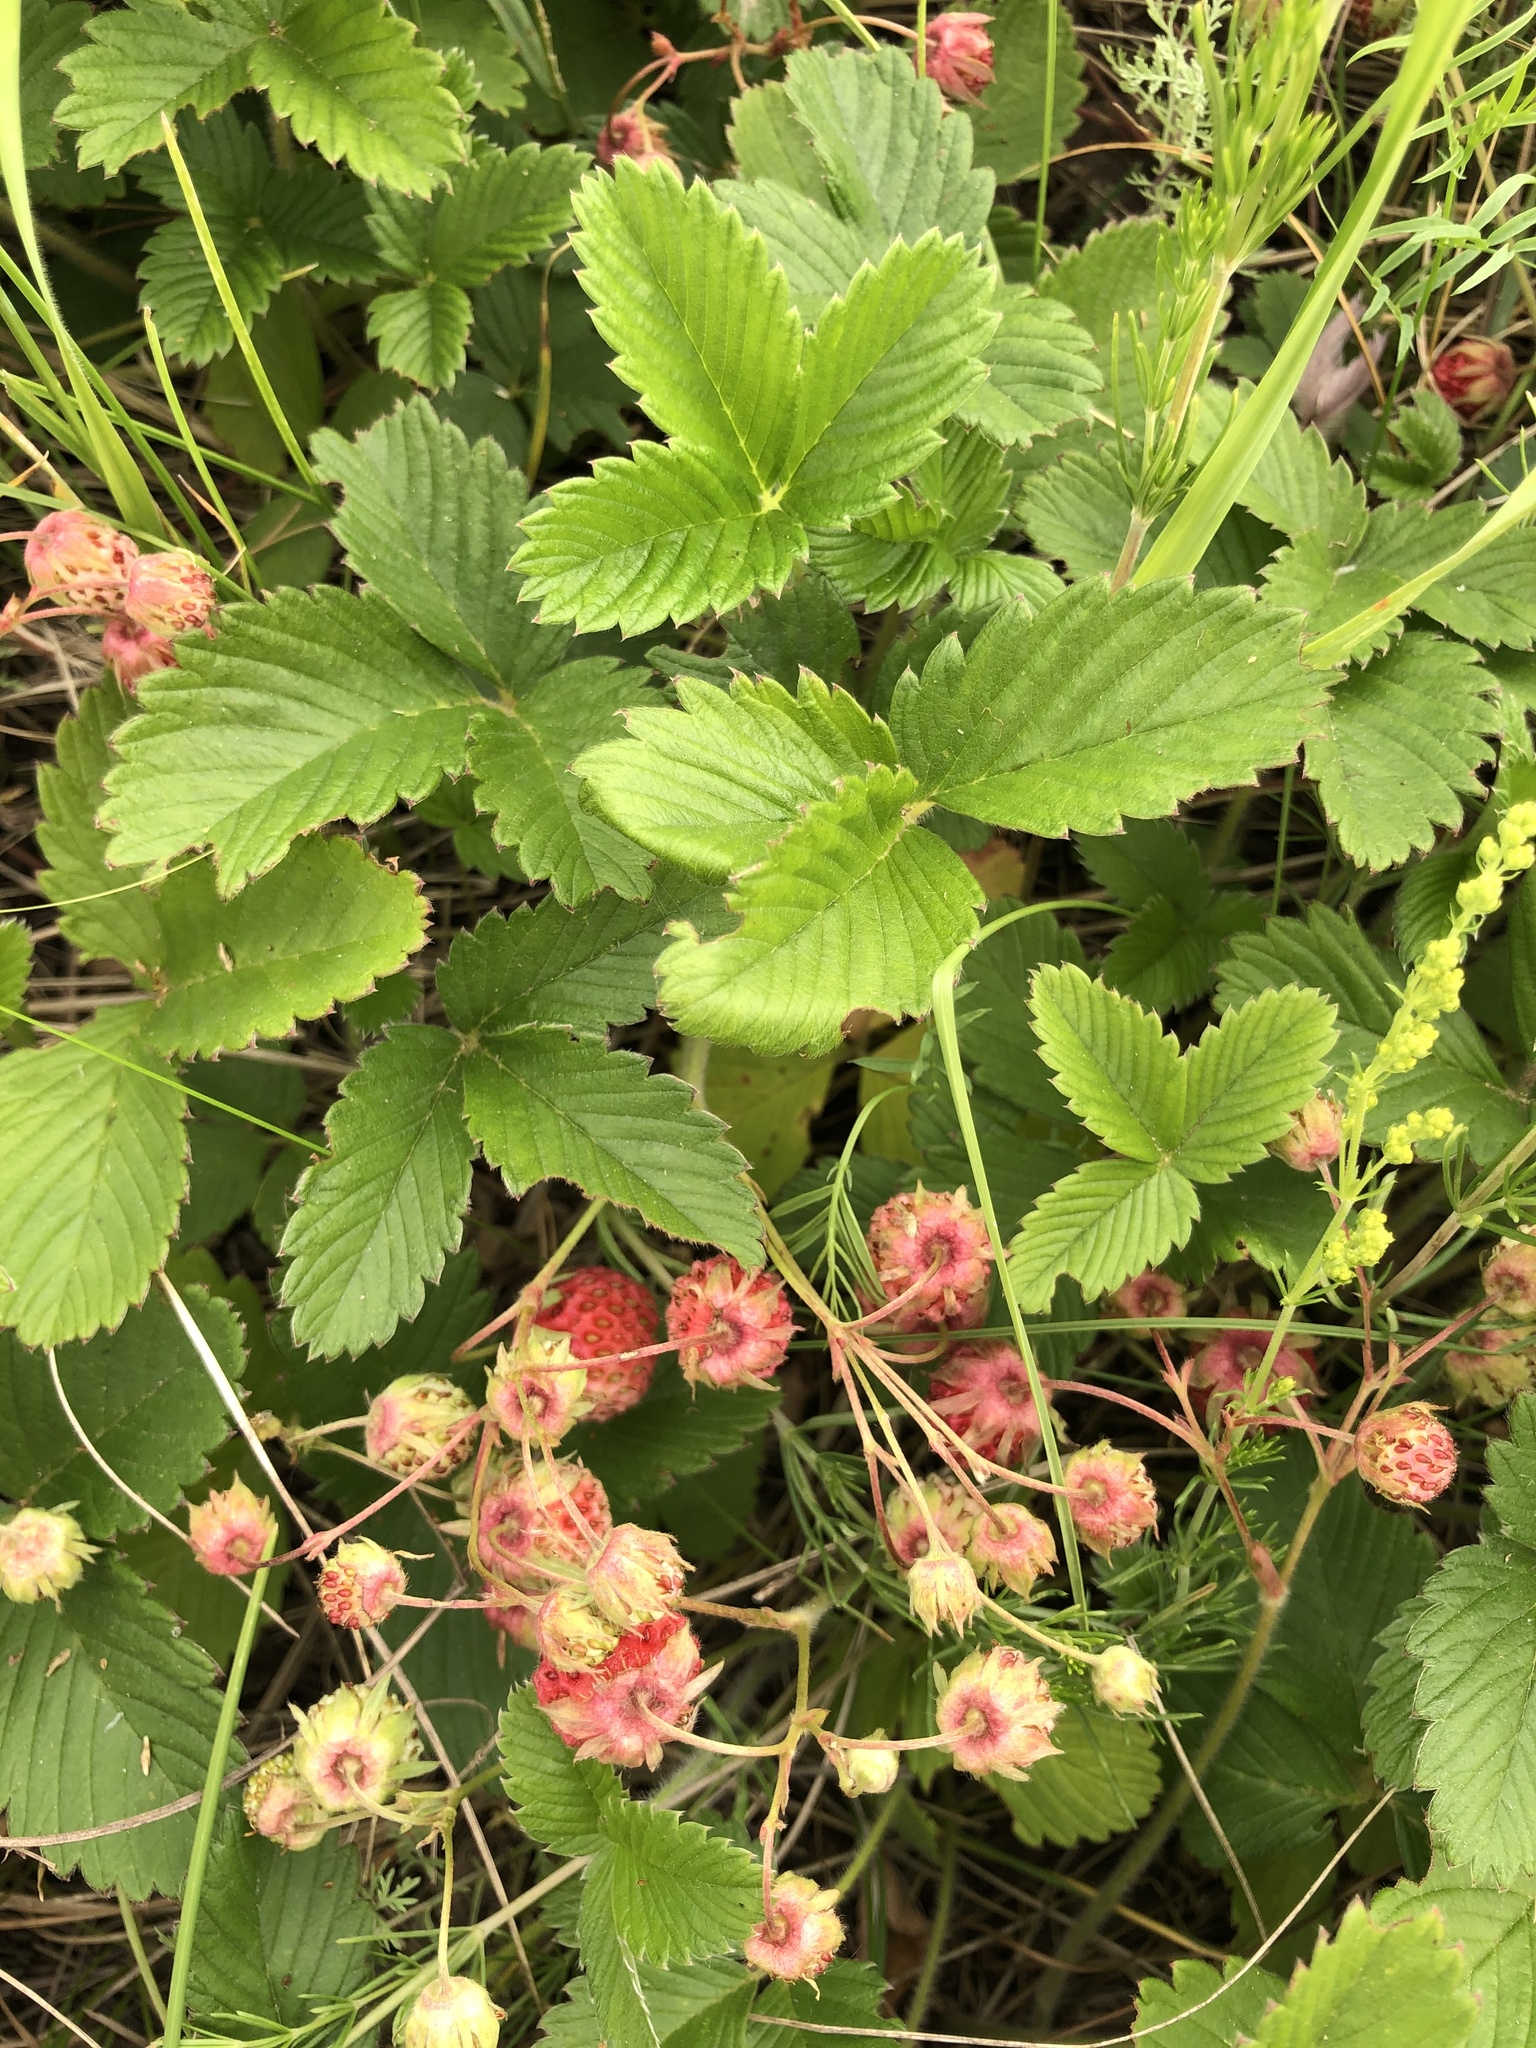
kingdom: Plantae
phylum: Tracheophyta
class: Magnoliopsida
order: Rosales
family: Rosaceae
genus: Fragaria
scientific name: Fragaria viridis
